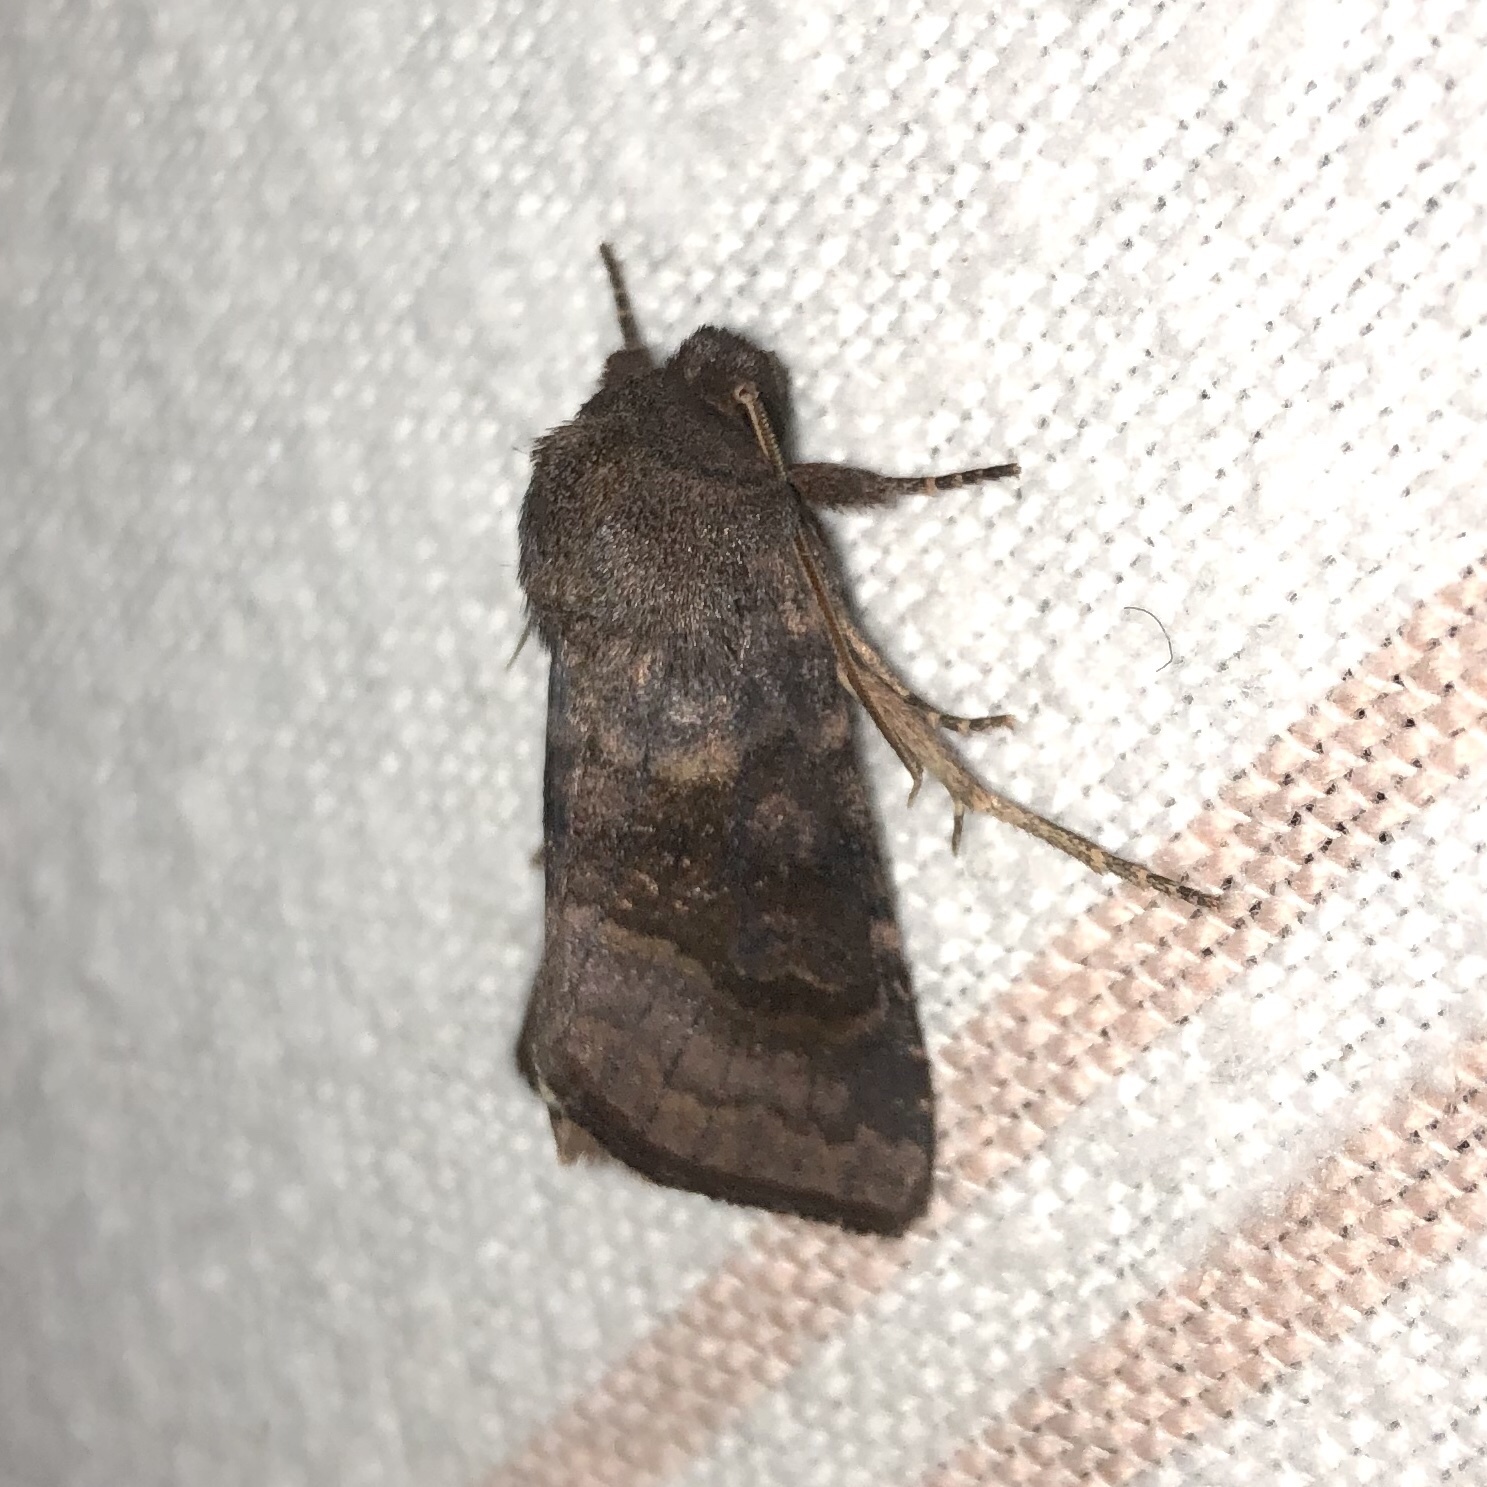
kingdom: Animalia
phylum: Arthropoda
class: Insecta
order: Lepidoptera
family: Noctuidae
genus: Nephelodes
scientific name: Nephelodes minians
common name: Bronzed cutworm
